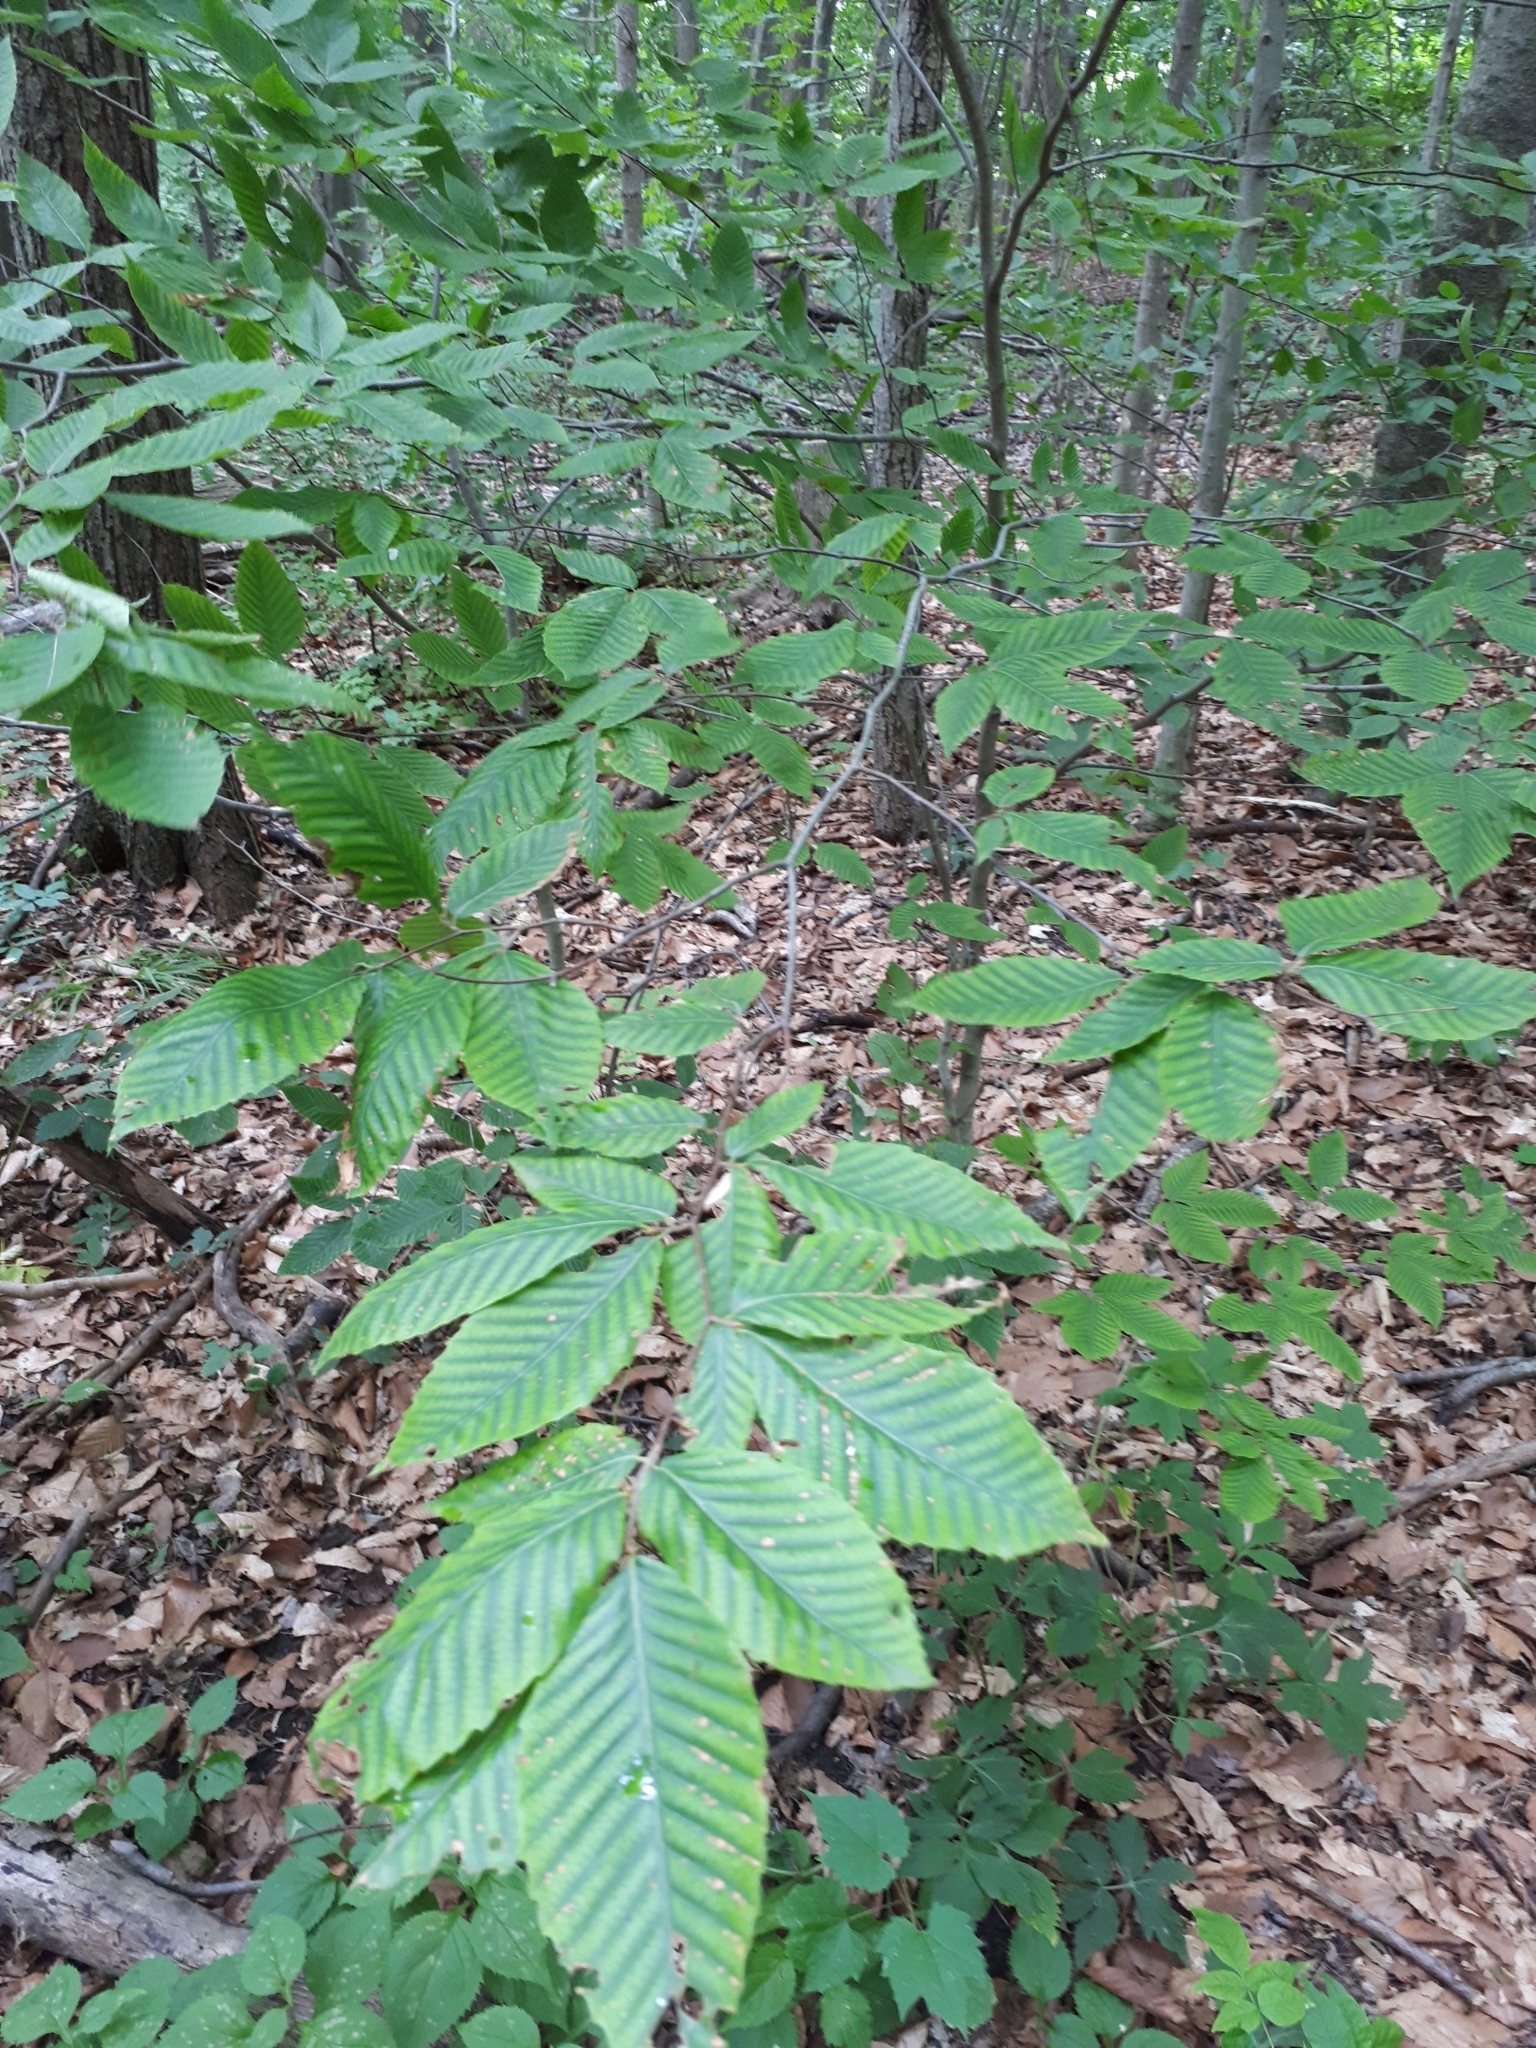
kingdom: Plantae
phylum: Tracheophyta
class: Magnoliopsida
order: Fagales
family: Fagaceae
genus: Fagus
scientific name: Fagus grandifolia
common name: American beech
